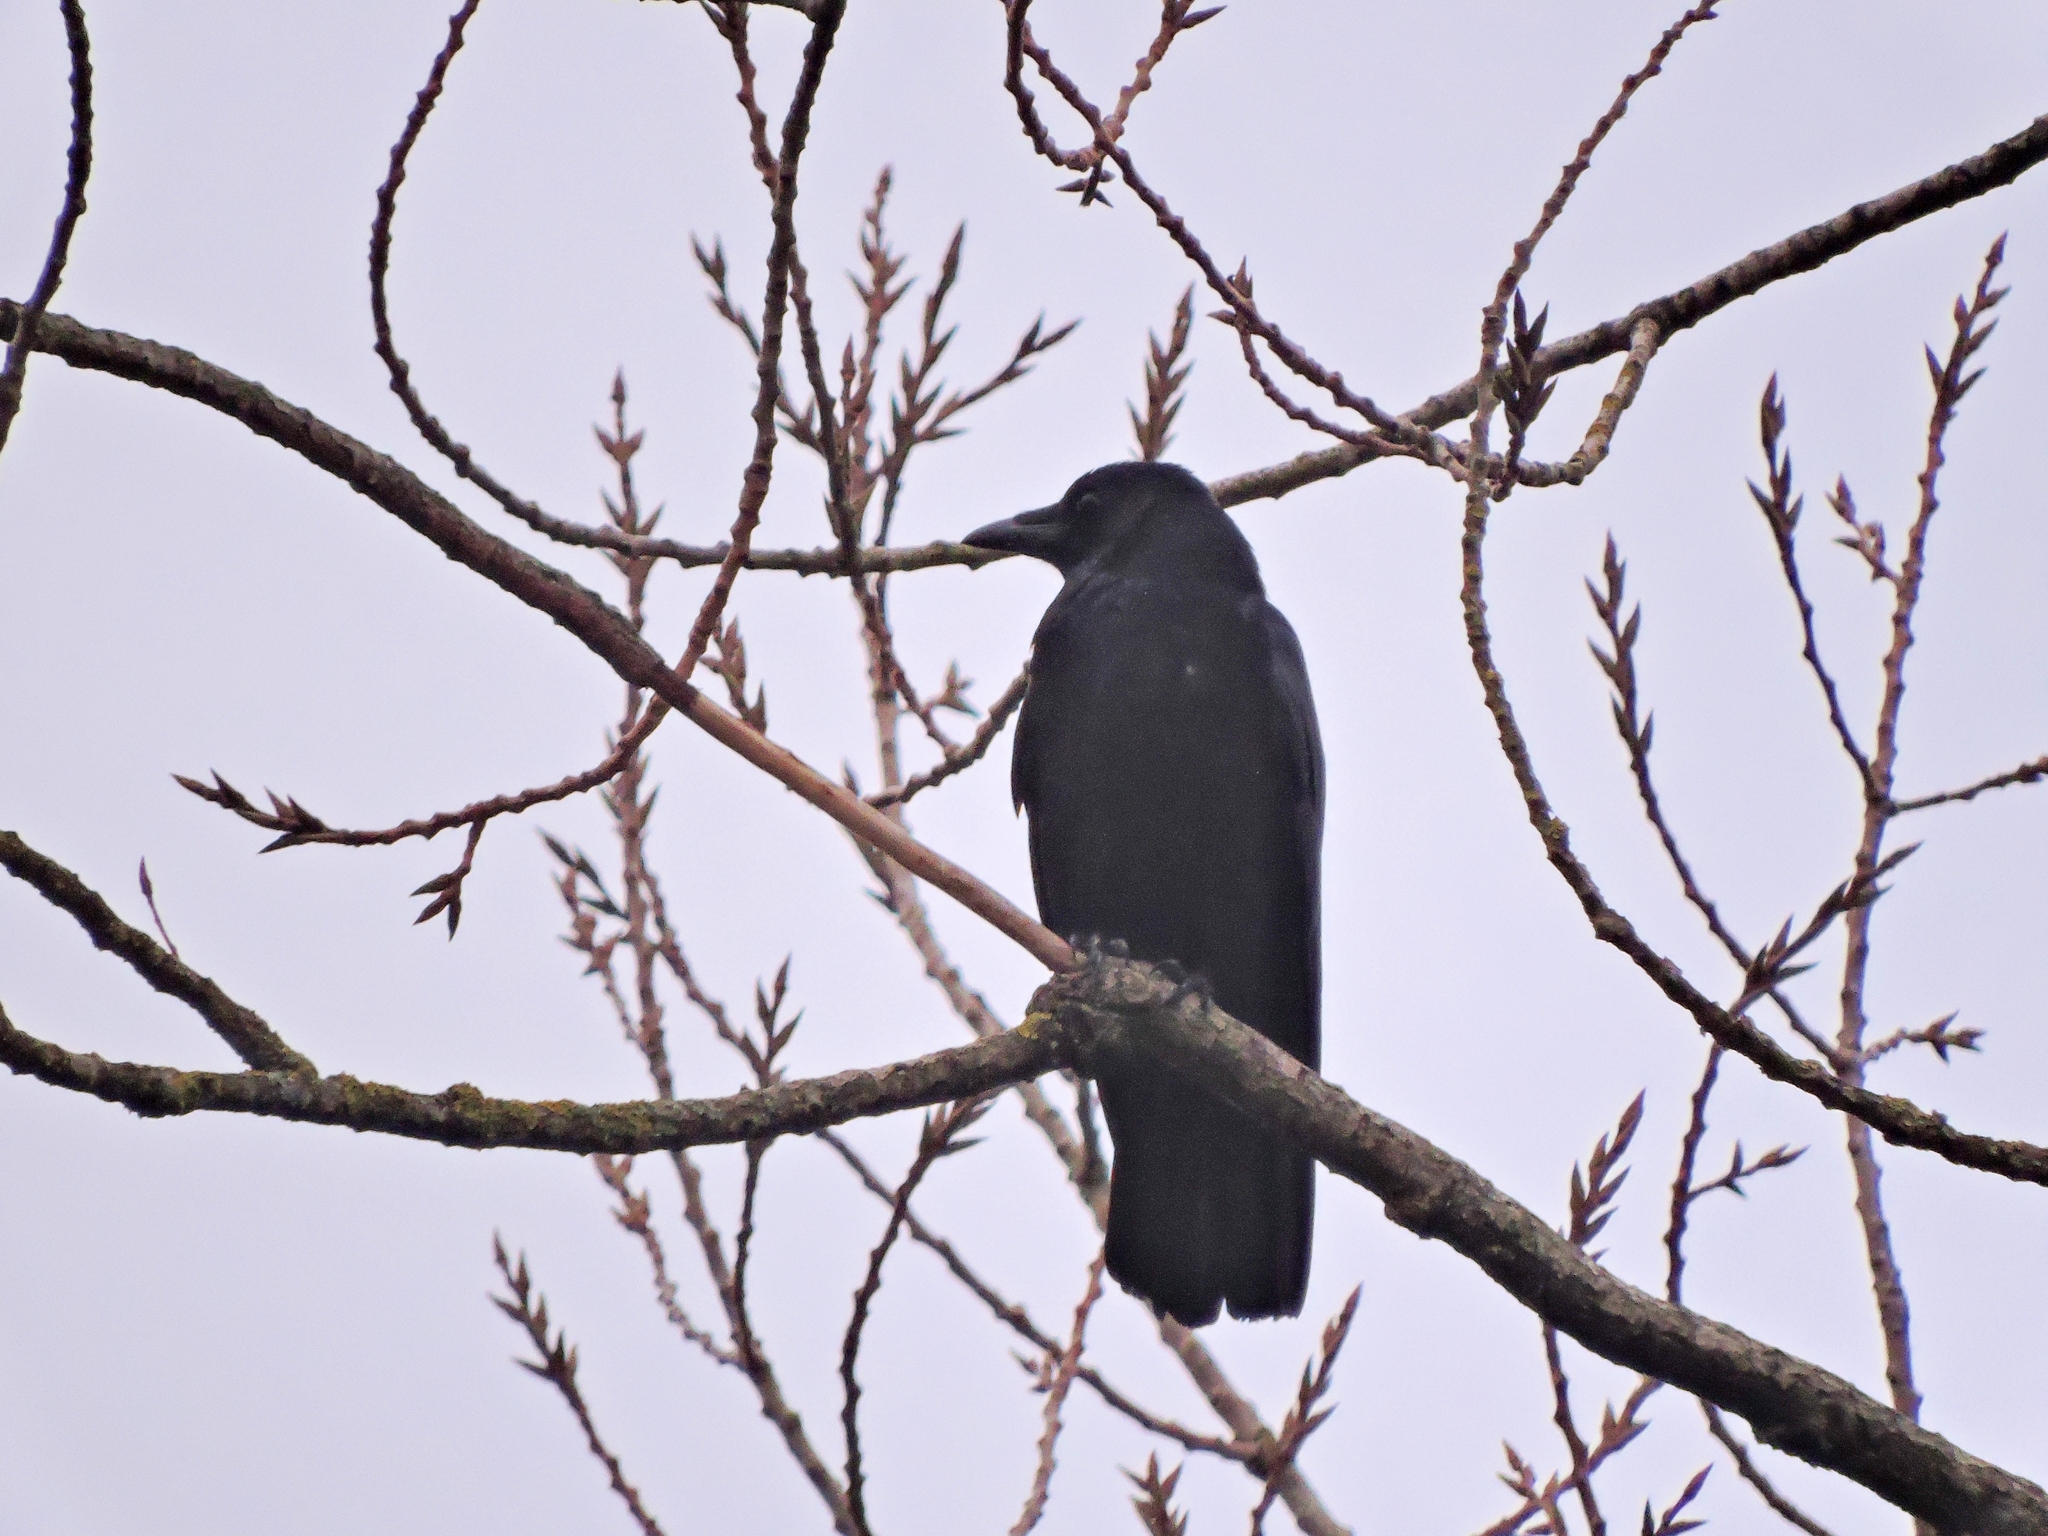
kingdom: Animalia
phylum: Chordata
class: Aves
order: Passeriformes
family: Corvidae
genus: Corvus
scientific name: Corvus corone
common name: Carrion crow
